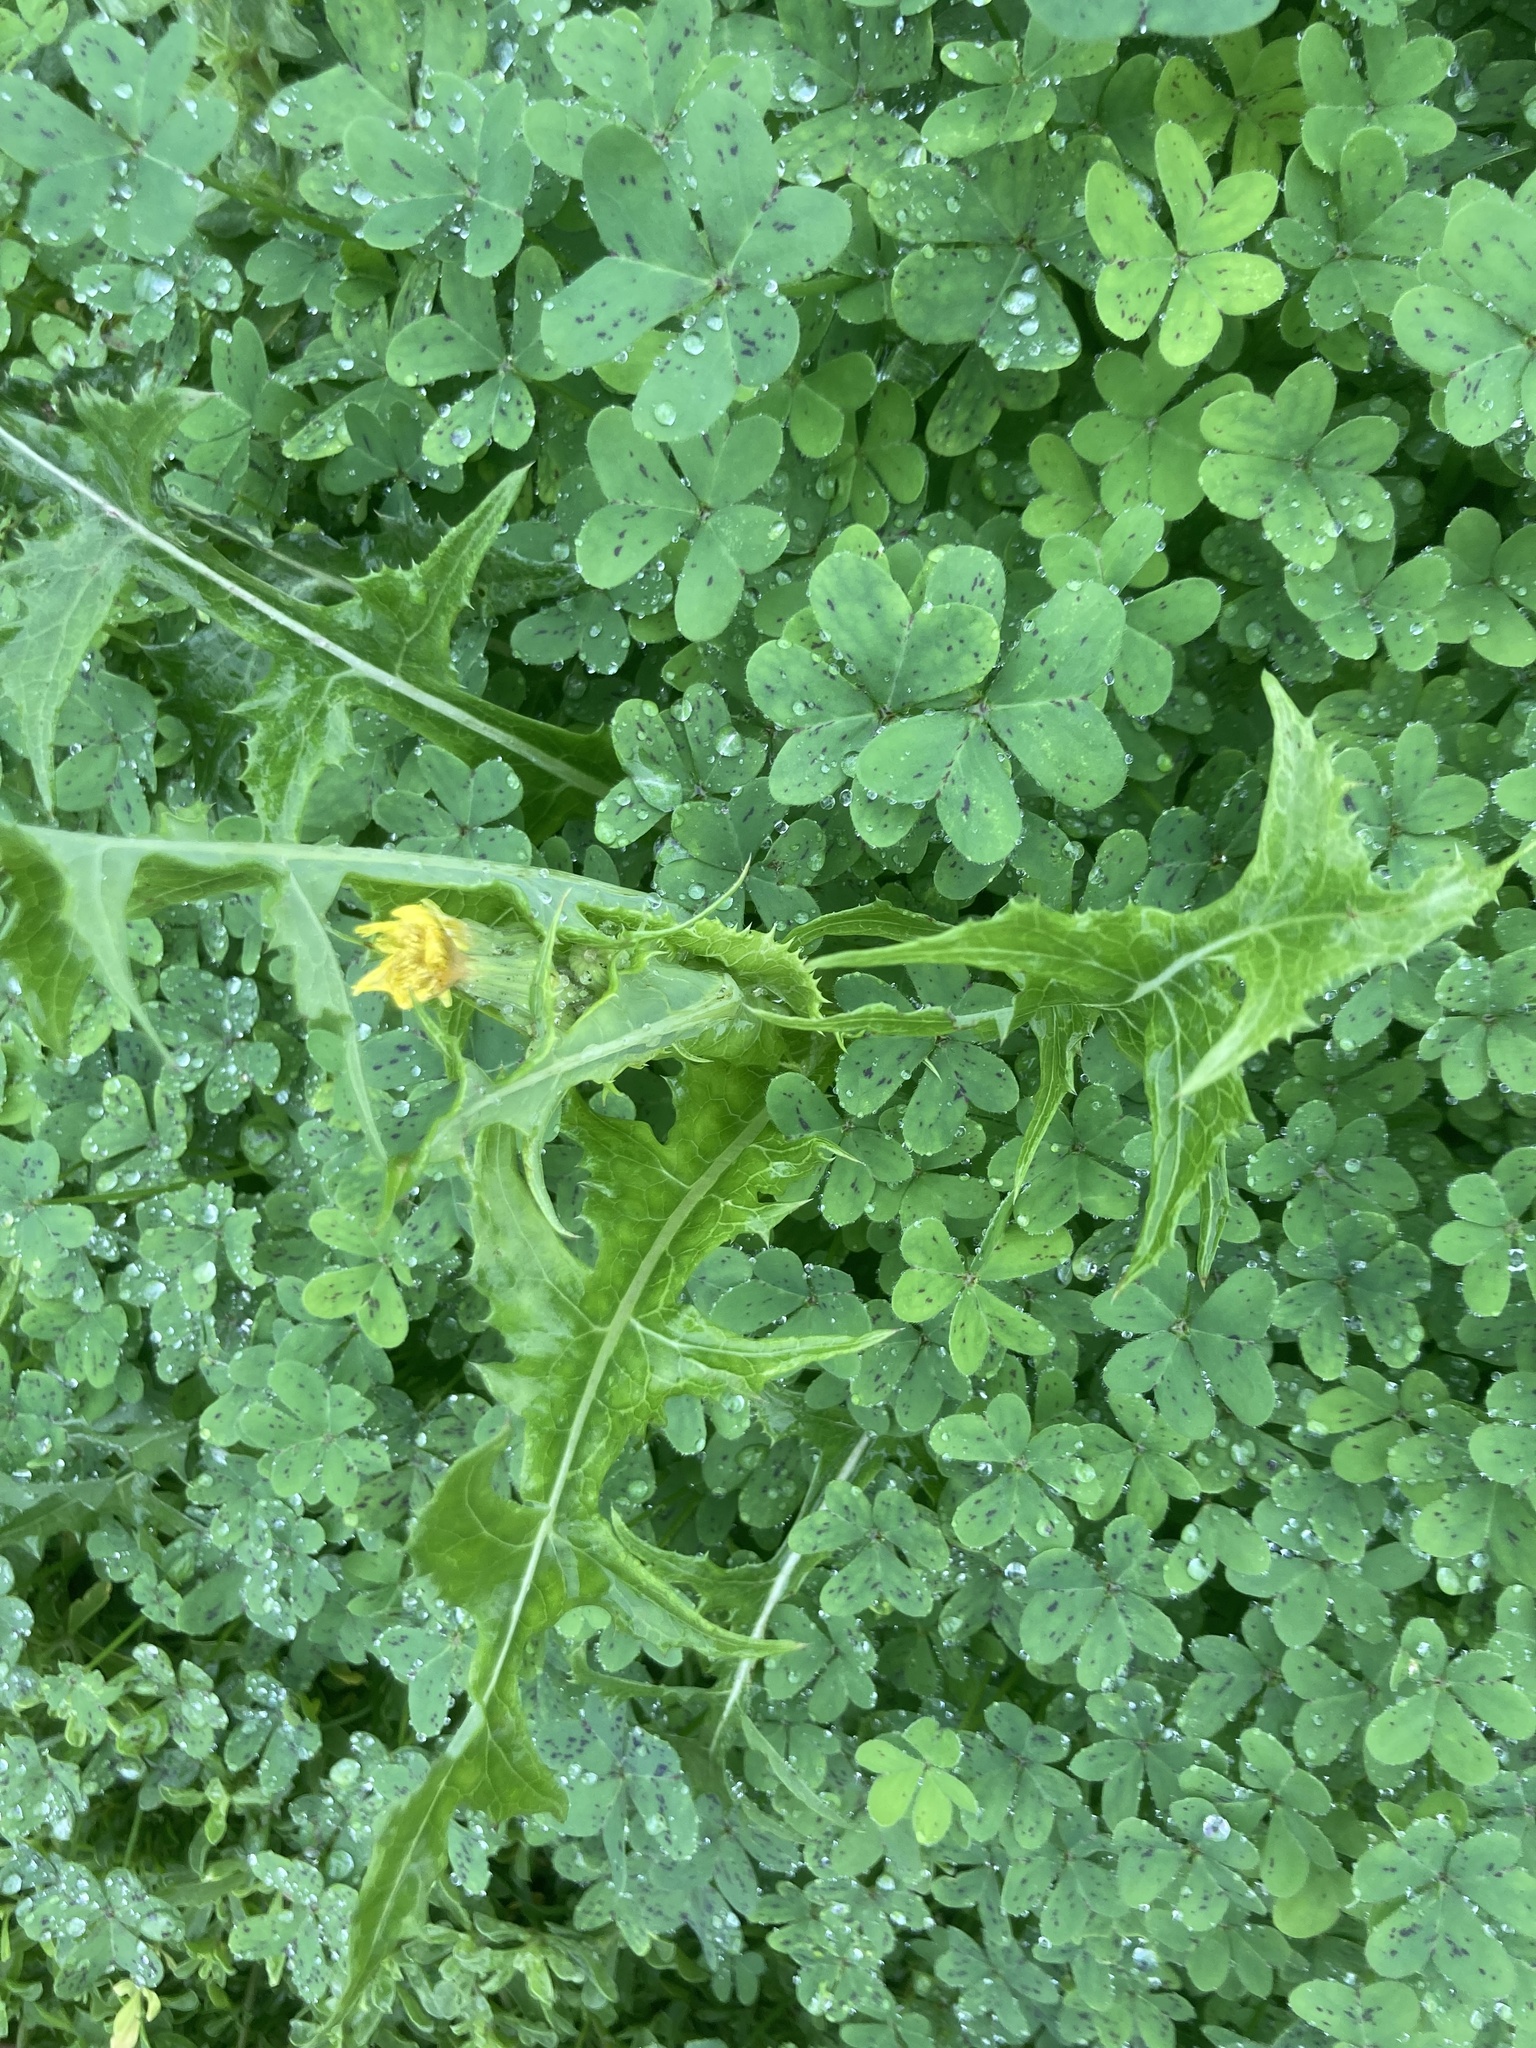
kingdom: Plantae
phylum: Tracheophyta
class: Magnoliopsida
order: Oxalidales
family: Oxalidaceae
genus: Oxalis
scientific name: Oxalis pes-caprae
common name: Bermuda-buttercup
